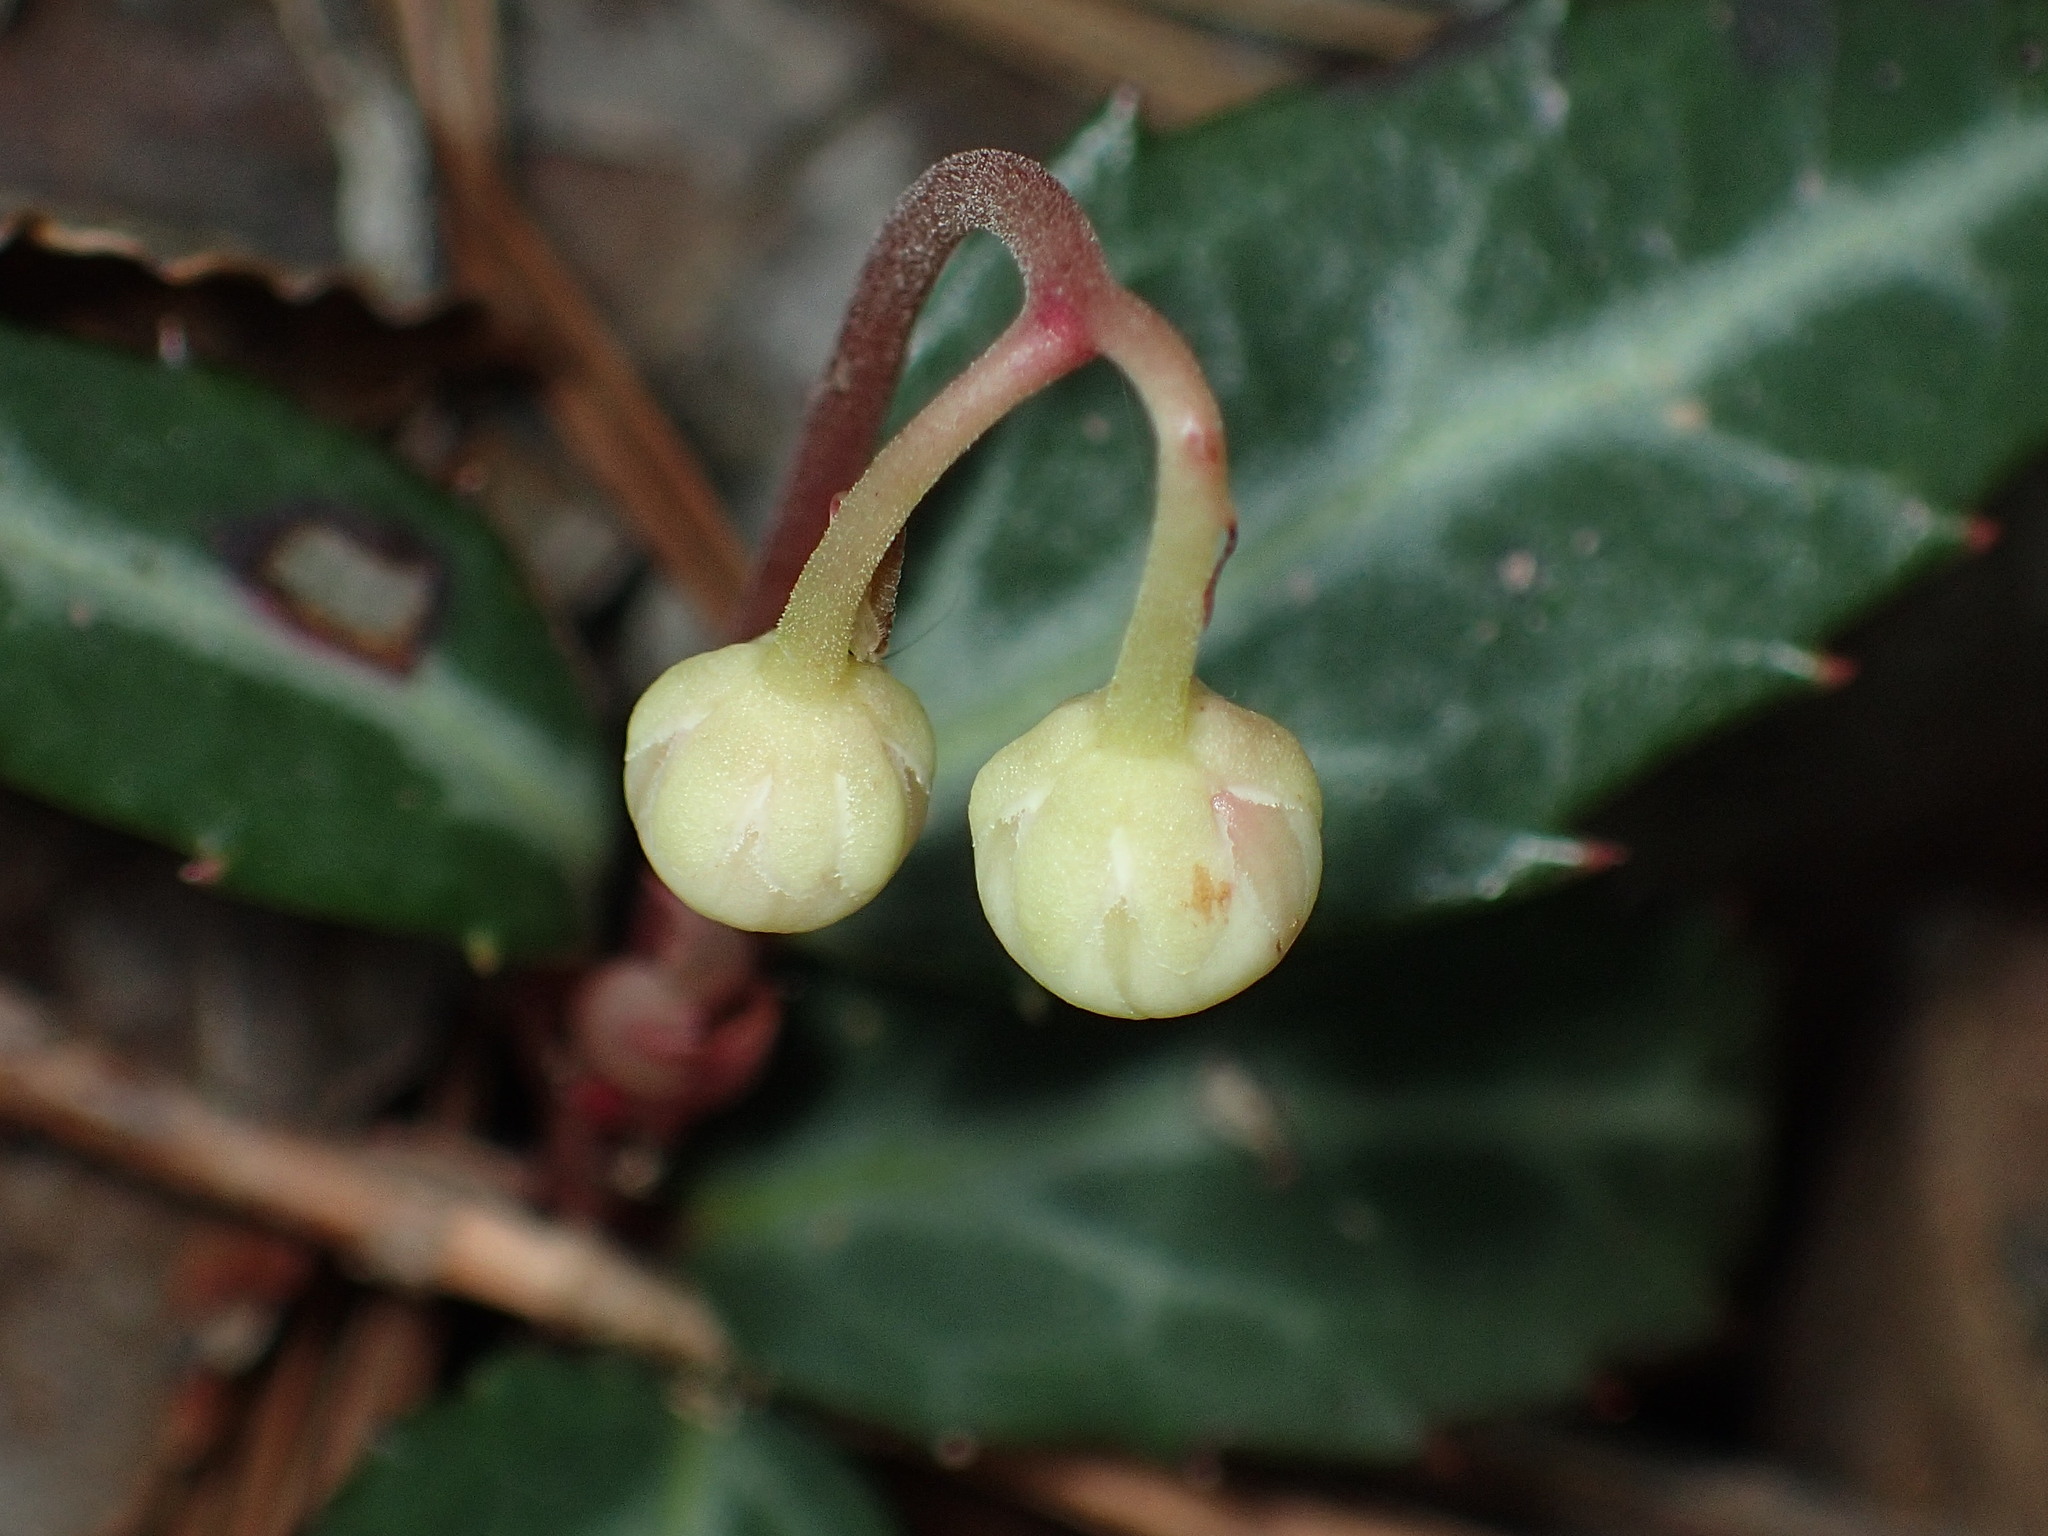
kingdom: Plantae
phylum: Tracheophyta
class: Magnoliopsida
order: Ericales
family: Ericaceae
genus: Chimaphila
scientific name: Chimaphila maculata
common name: Spotted pipsissewa
